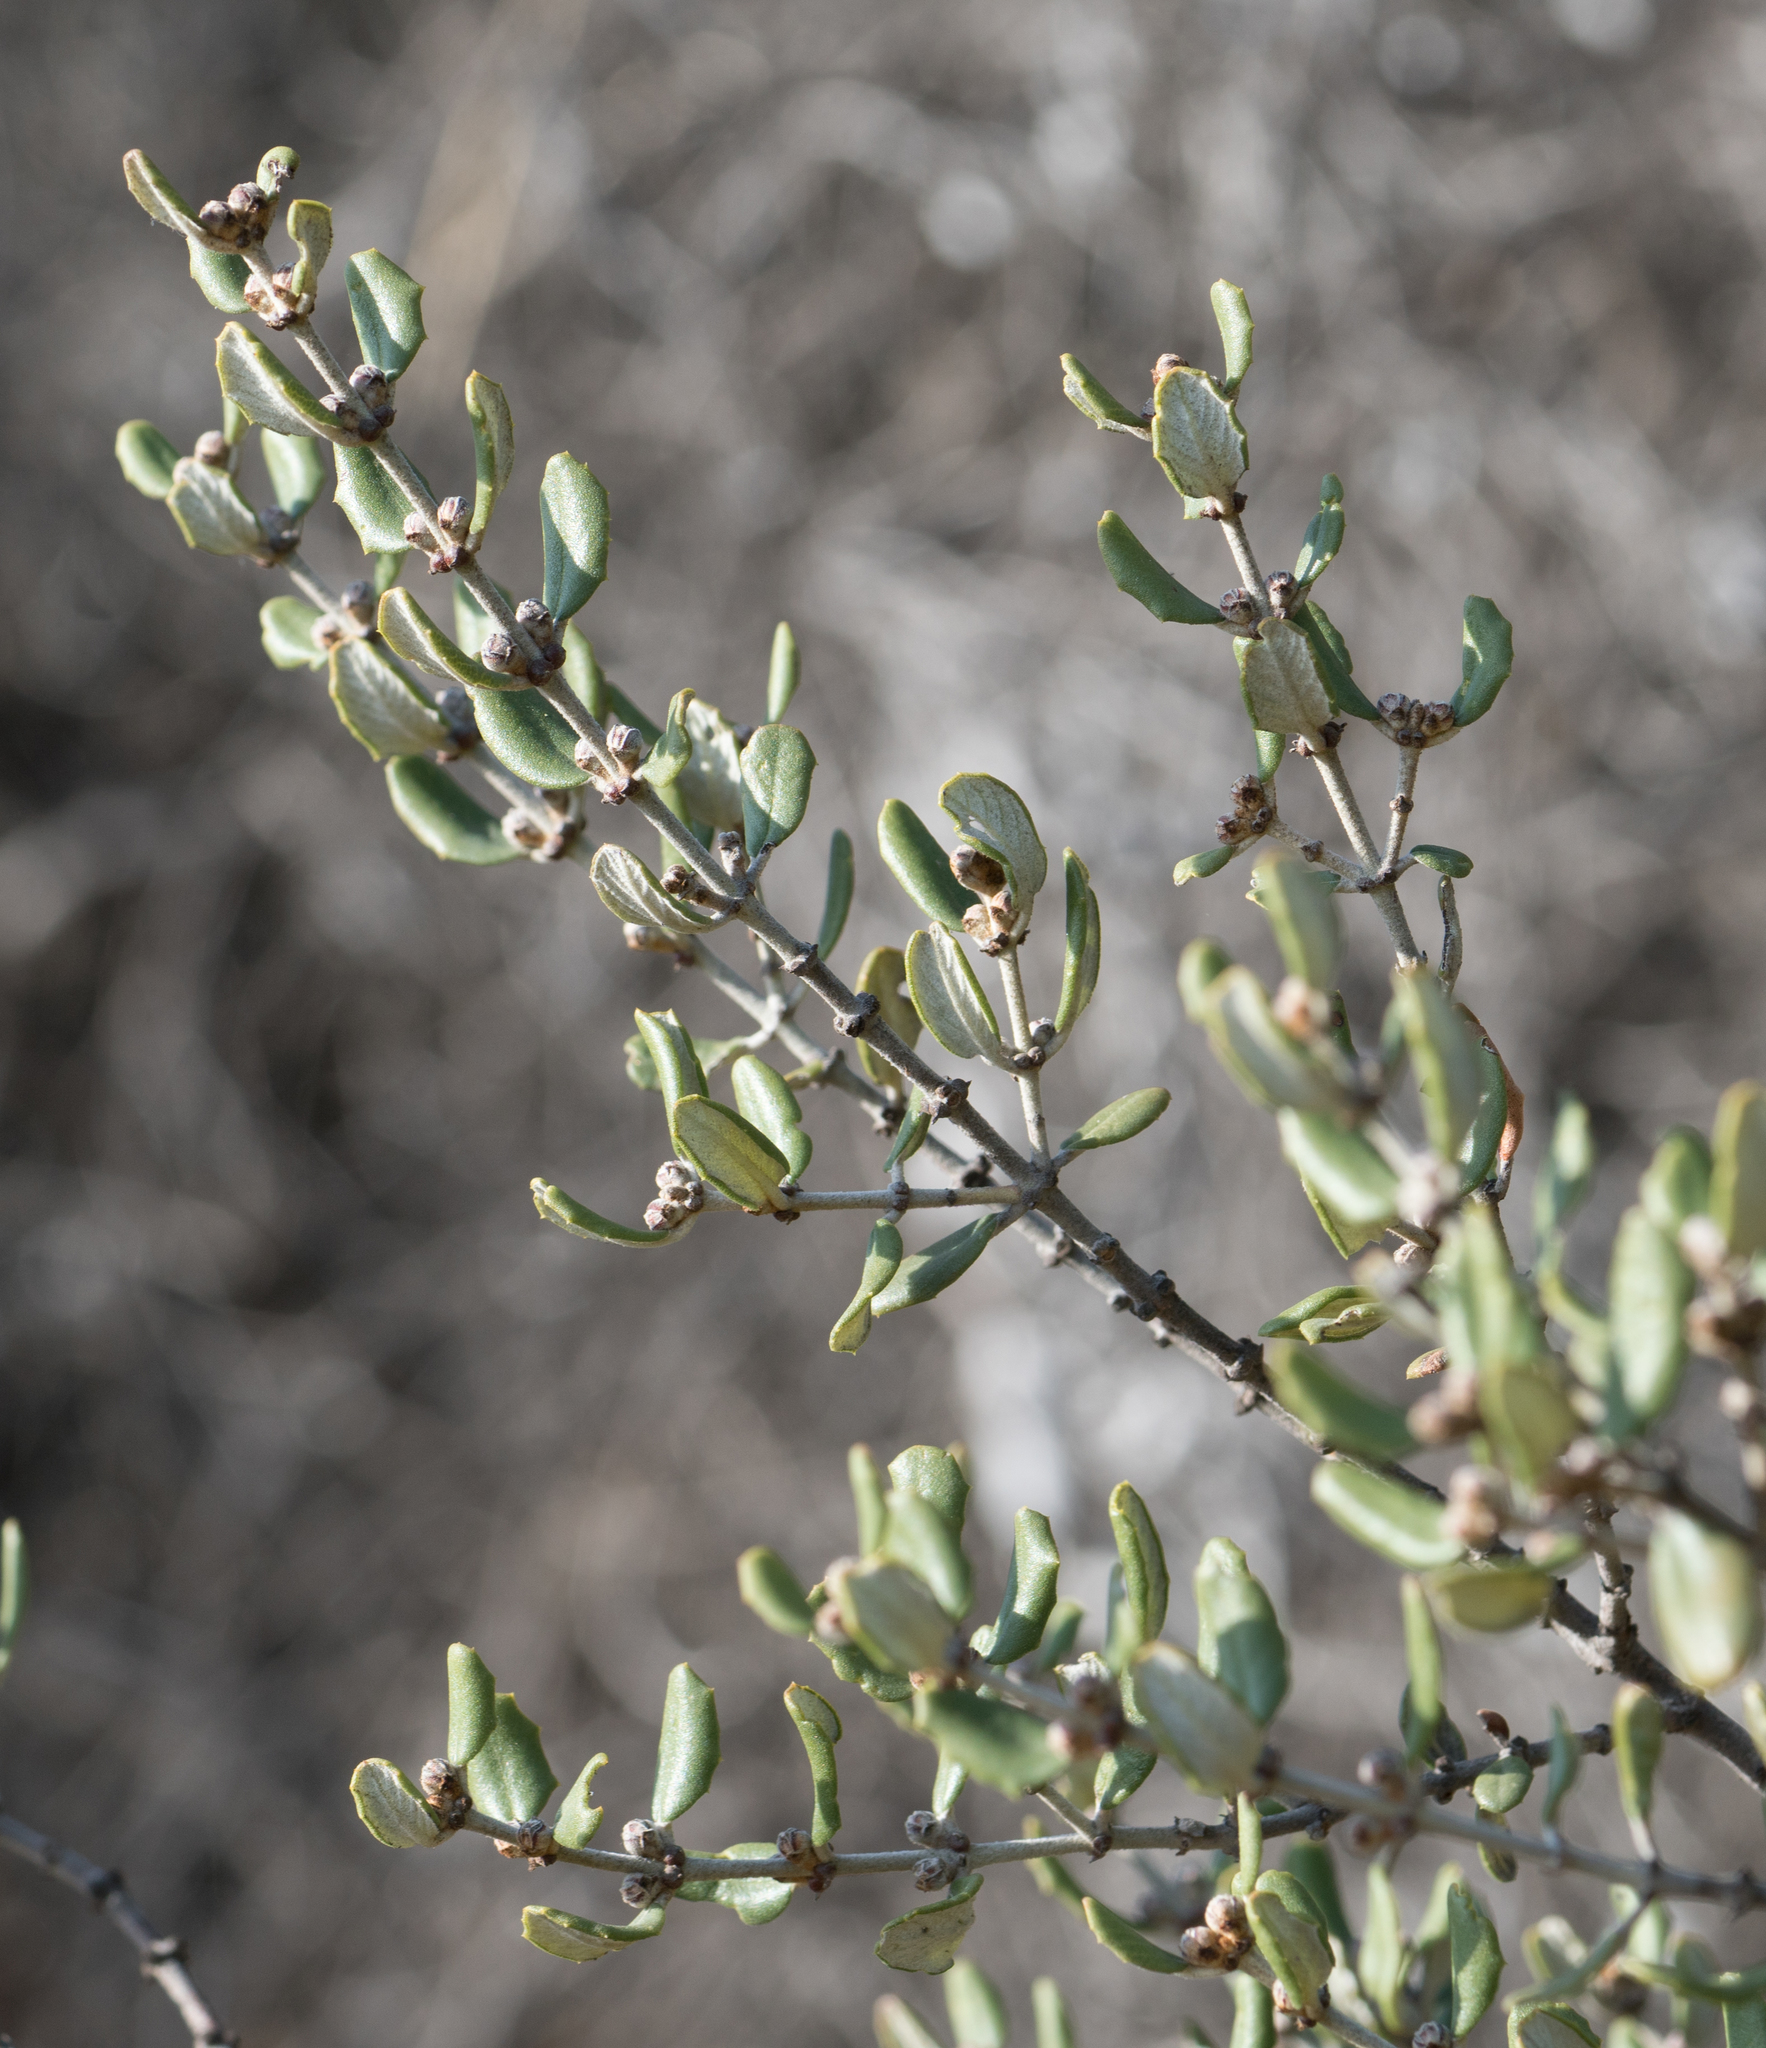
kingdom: Plantae
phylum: Tracheophyta
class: Magnoliopsida
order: Rosales
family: Rhamnaceae
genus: Ceanothus
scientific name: Ceanothus crassifolius
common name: Hoaryleaf ceanothus
